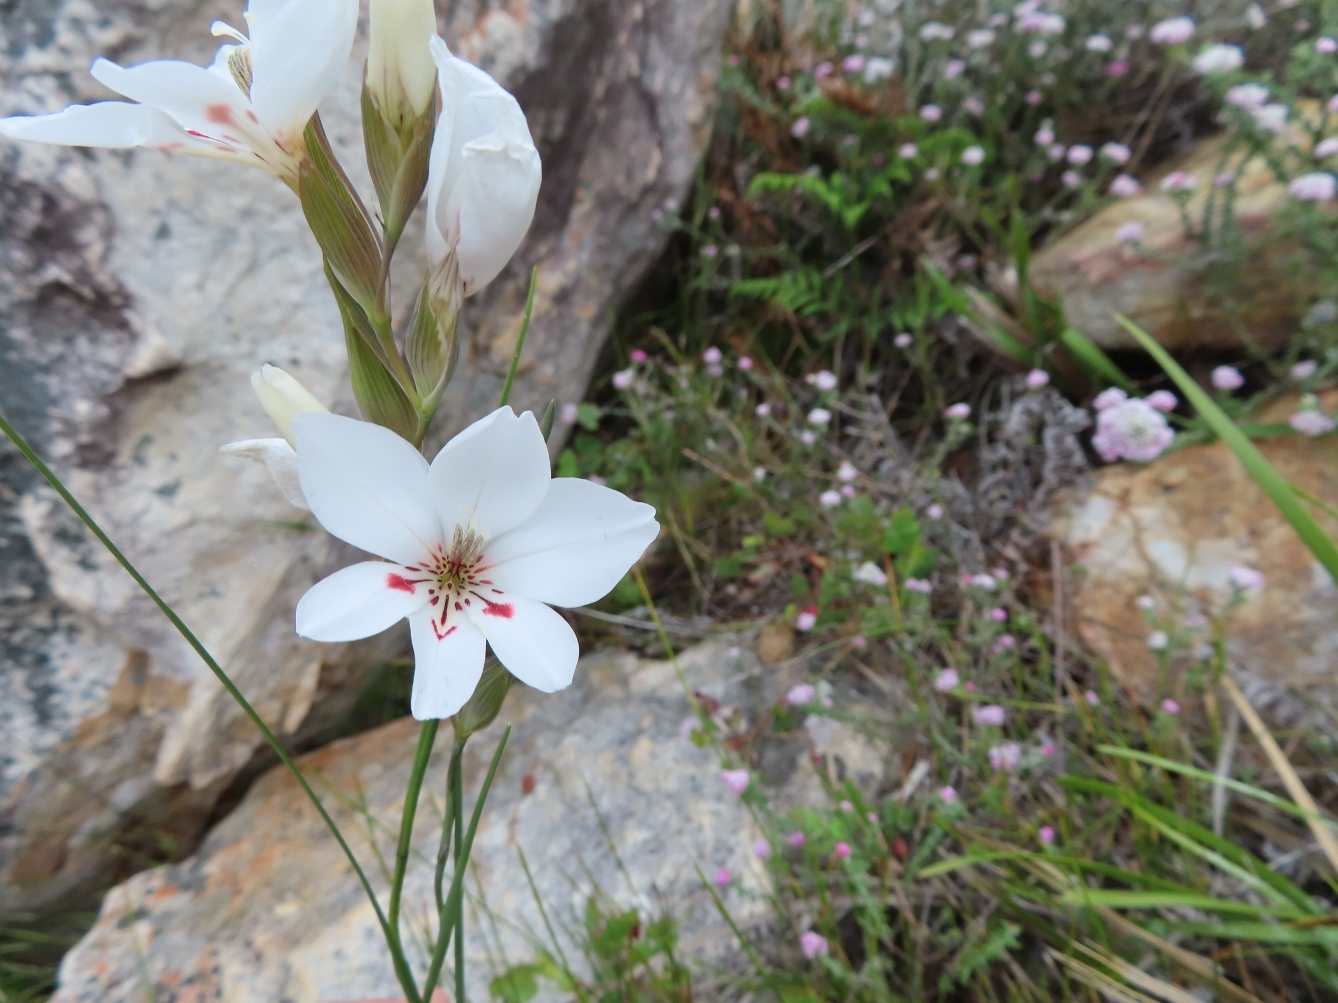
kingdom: Plantae
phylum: Tracheophyta
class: Liliopsida
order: Asparagales
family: Iridaceae
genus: Gladiolus
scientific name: Gladiolus debilis
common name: Painted-lady
